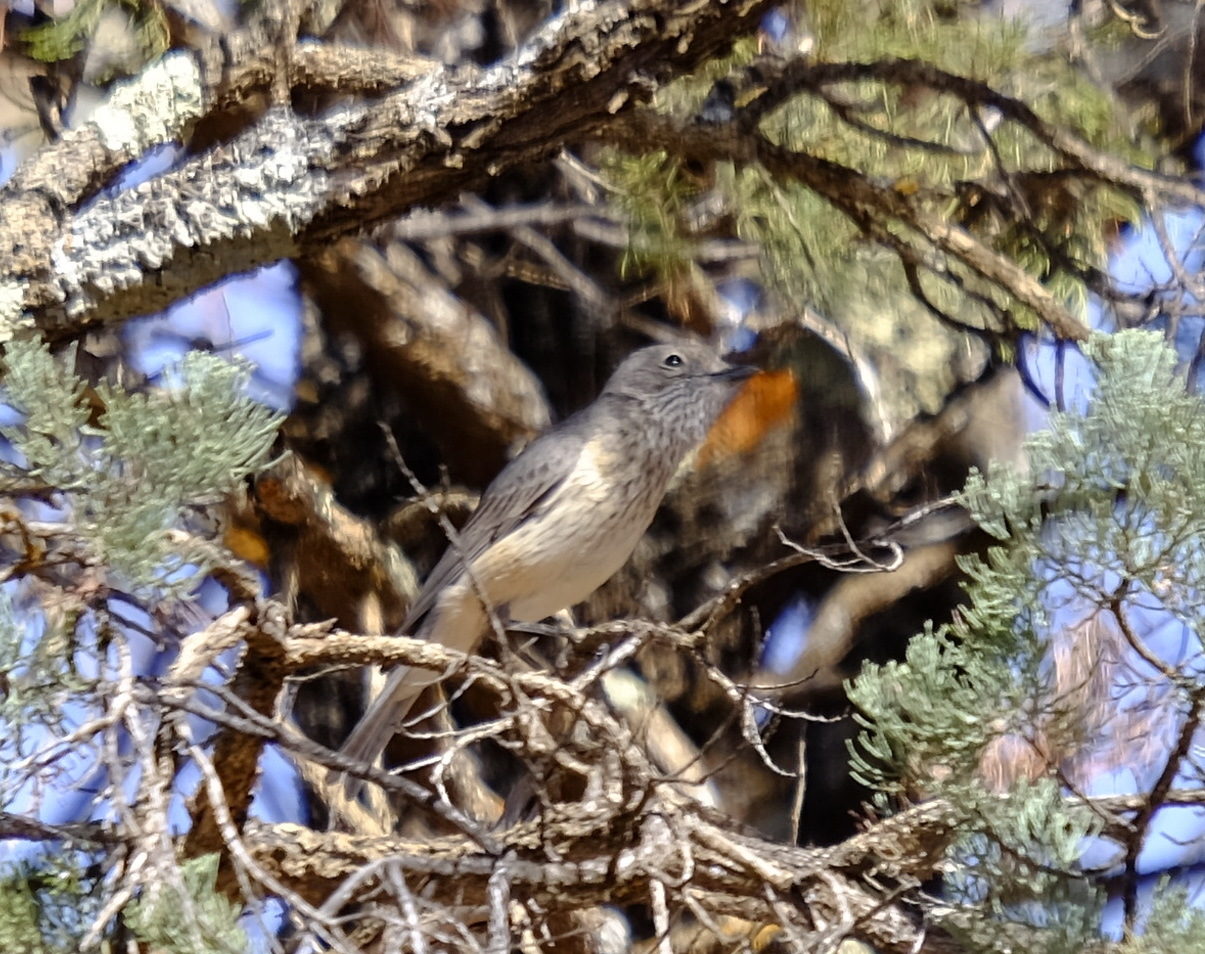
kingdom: Animalia
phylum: Chordata
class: Aves
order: Passeriformes
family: Pachycephalidae
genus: Pachycephala
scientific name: Pachycephala rufiventris
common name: Rufous whistler
